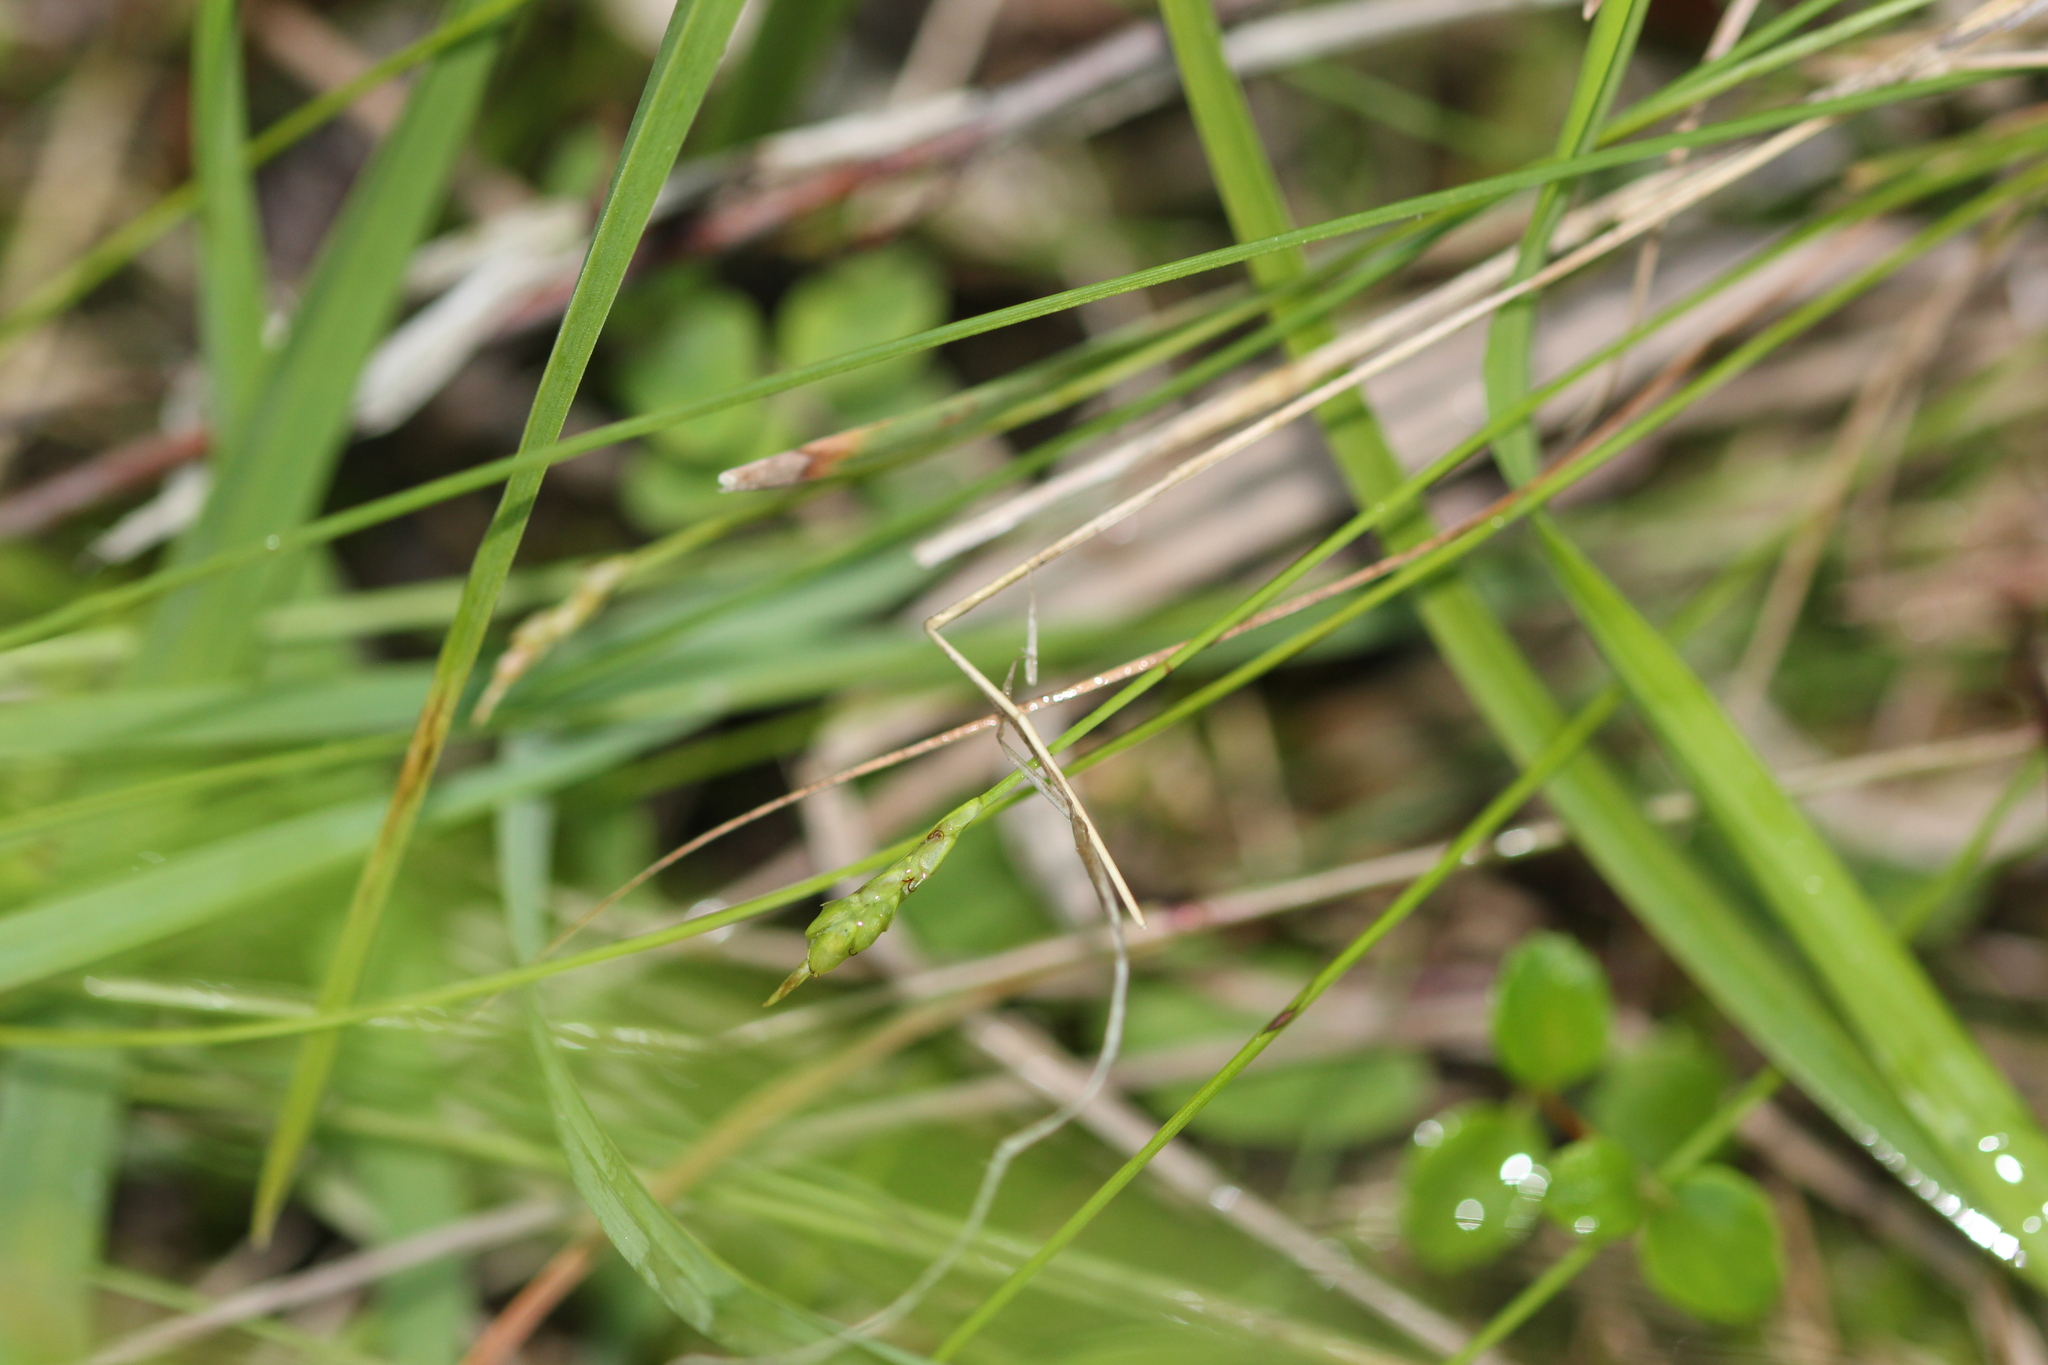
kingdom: Plantae
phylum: Tracheophyta
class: Liliopsida
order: Poales
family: Cyperaceae
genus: Carex
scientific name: Carex leptalea
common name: Bristly-stalked sedge
